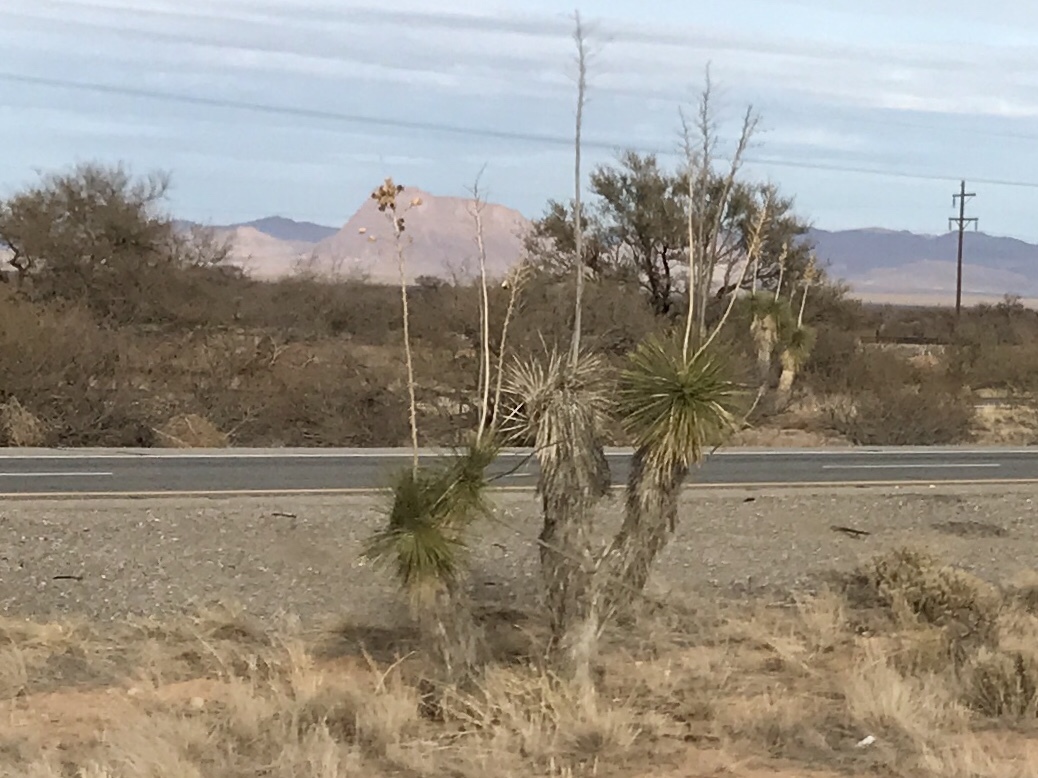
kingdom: Plantae
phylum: Tracheophyta
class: Liliopsida
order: Asparagales
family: Asparagaceae
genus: Yucca
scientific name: Yucca elata
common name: Palmella
